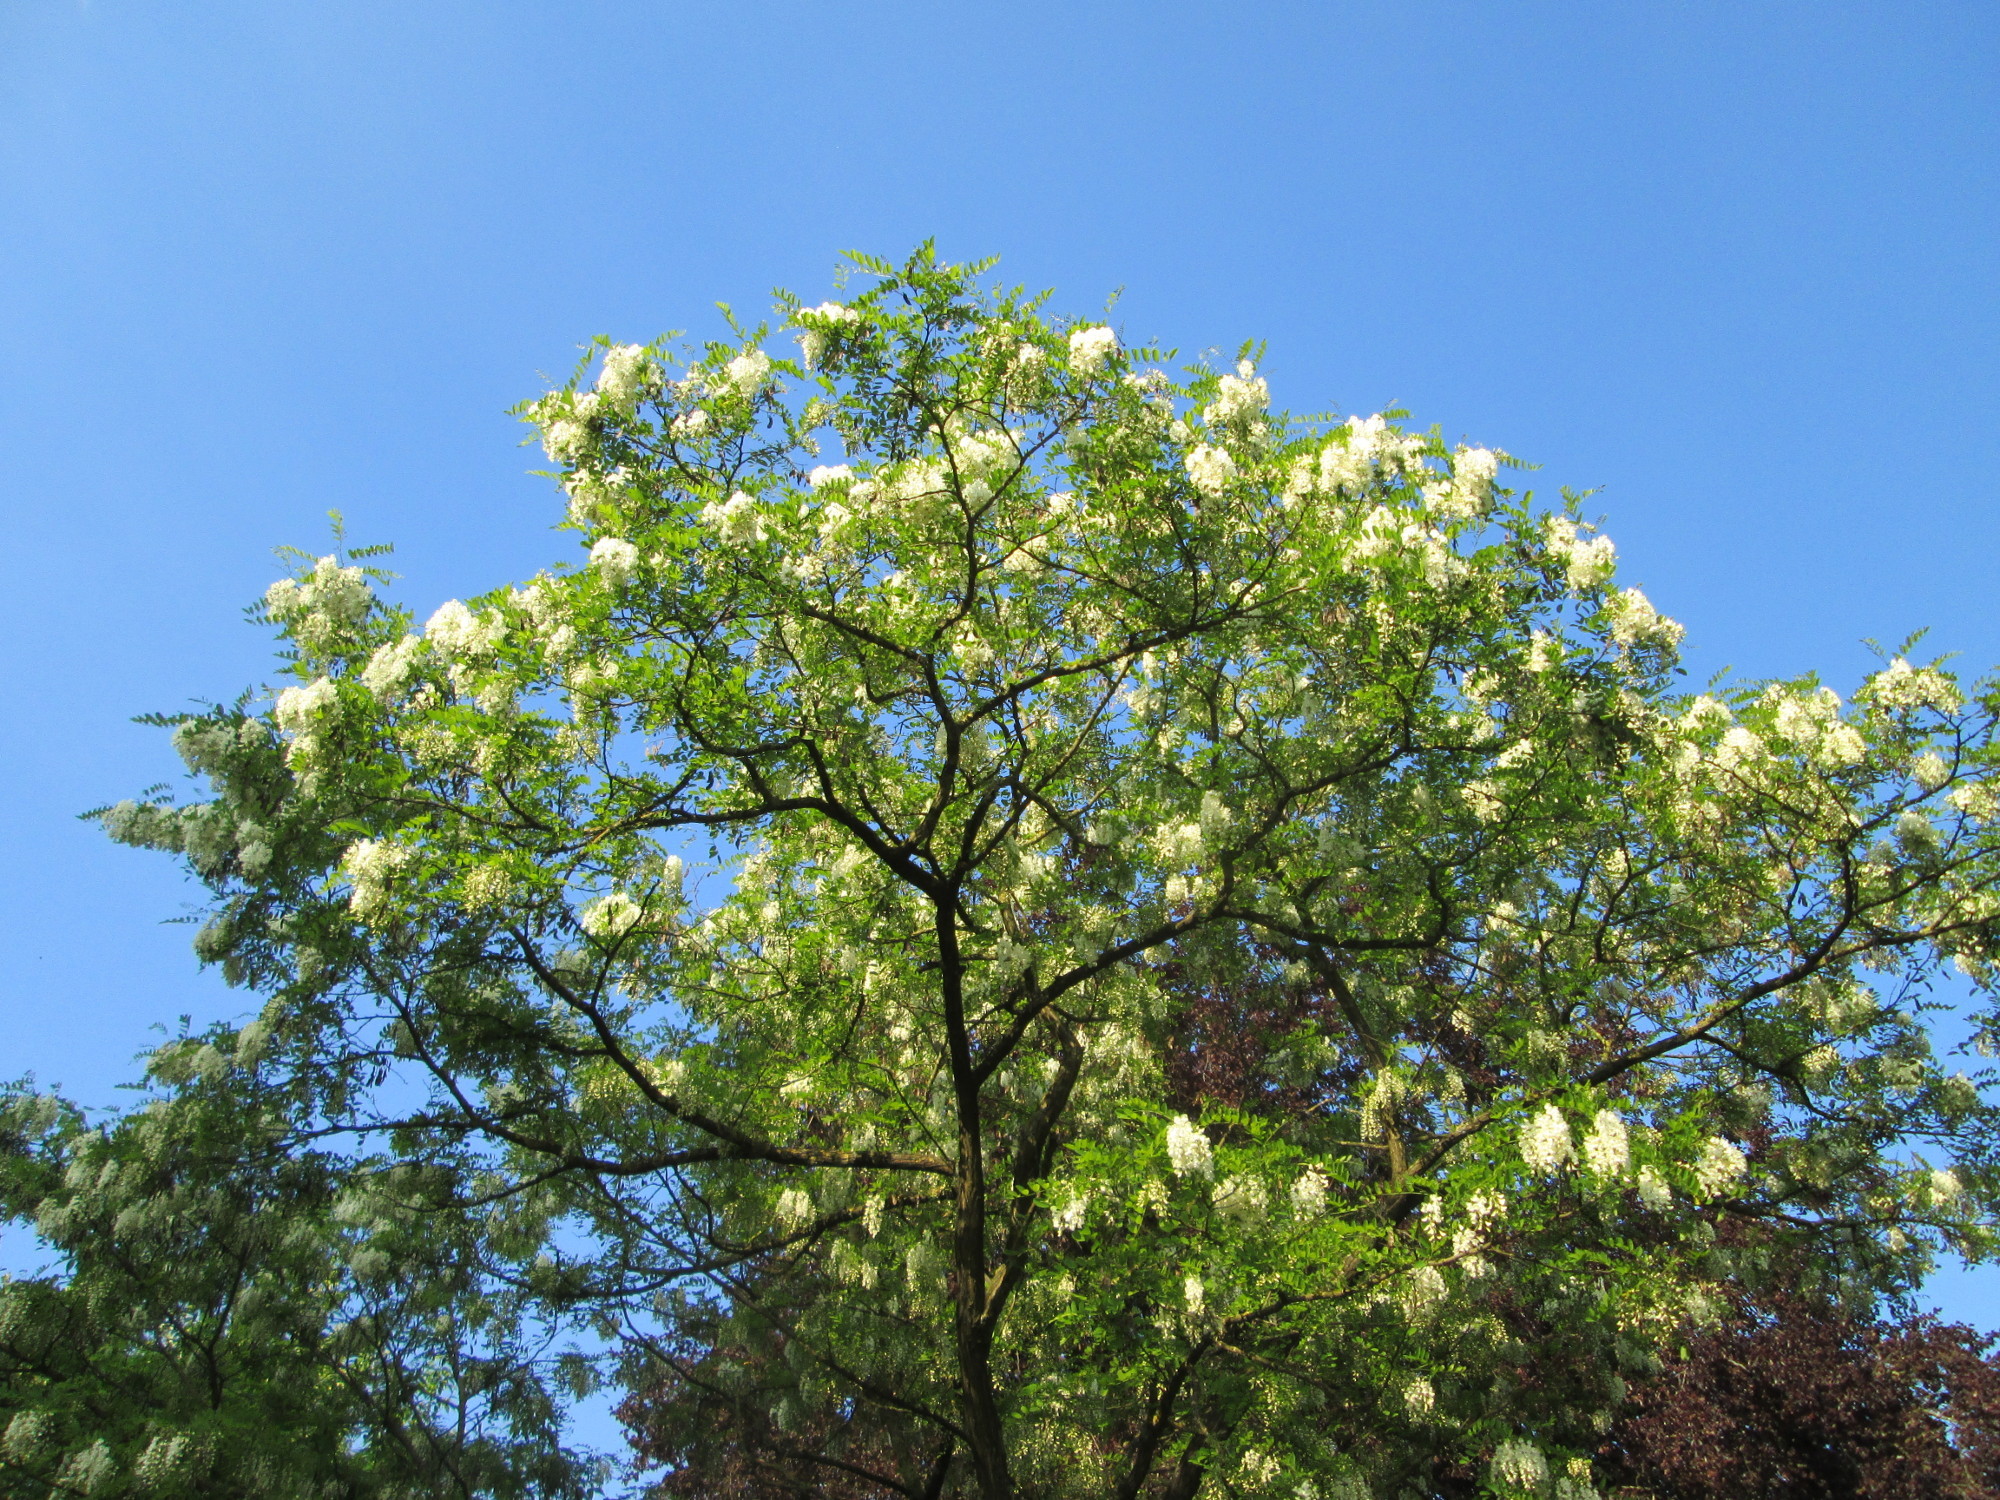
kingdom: Plantae
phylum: Tracheophyta
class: Magnoliopsida
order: Fabales
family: Fabaceae
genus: Robinia
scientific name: Robinia pseudoacacia
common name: Black locust
